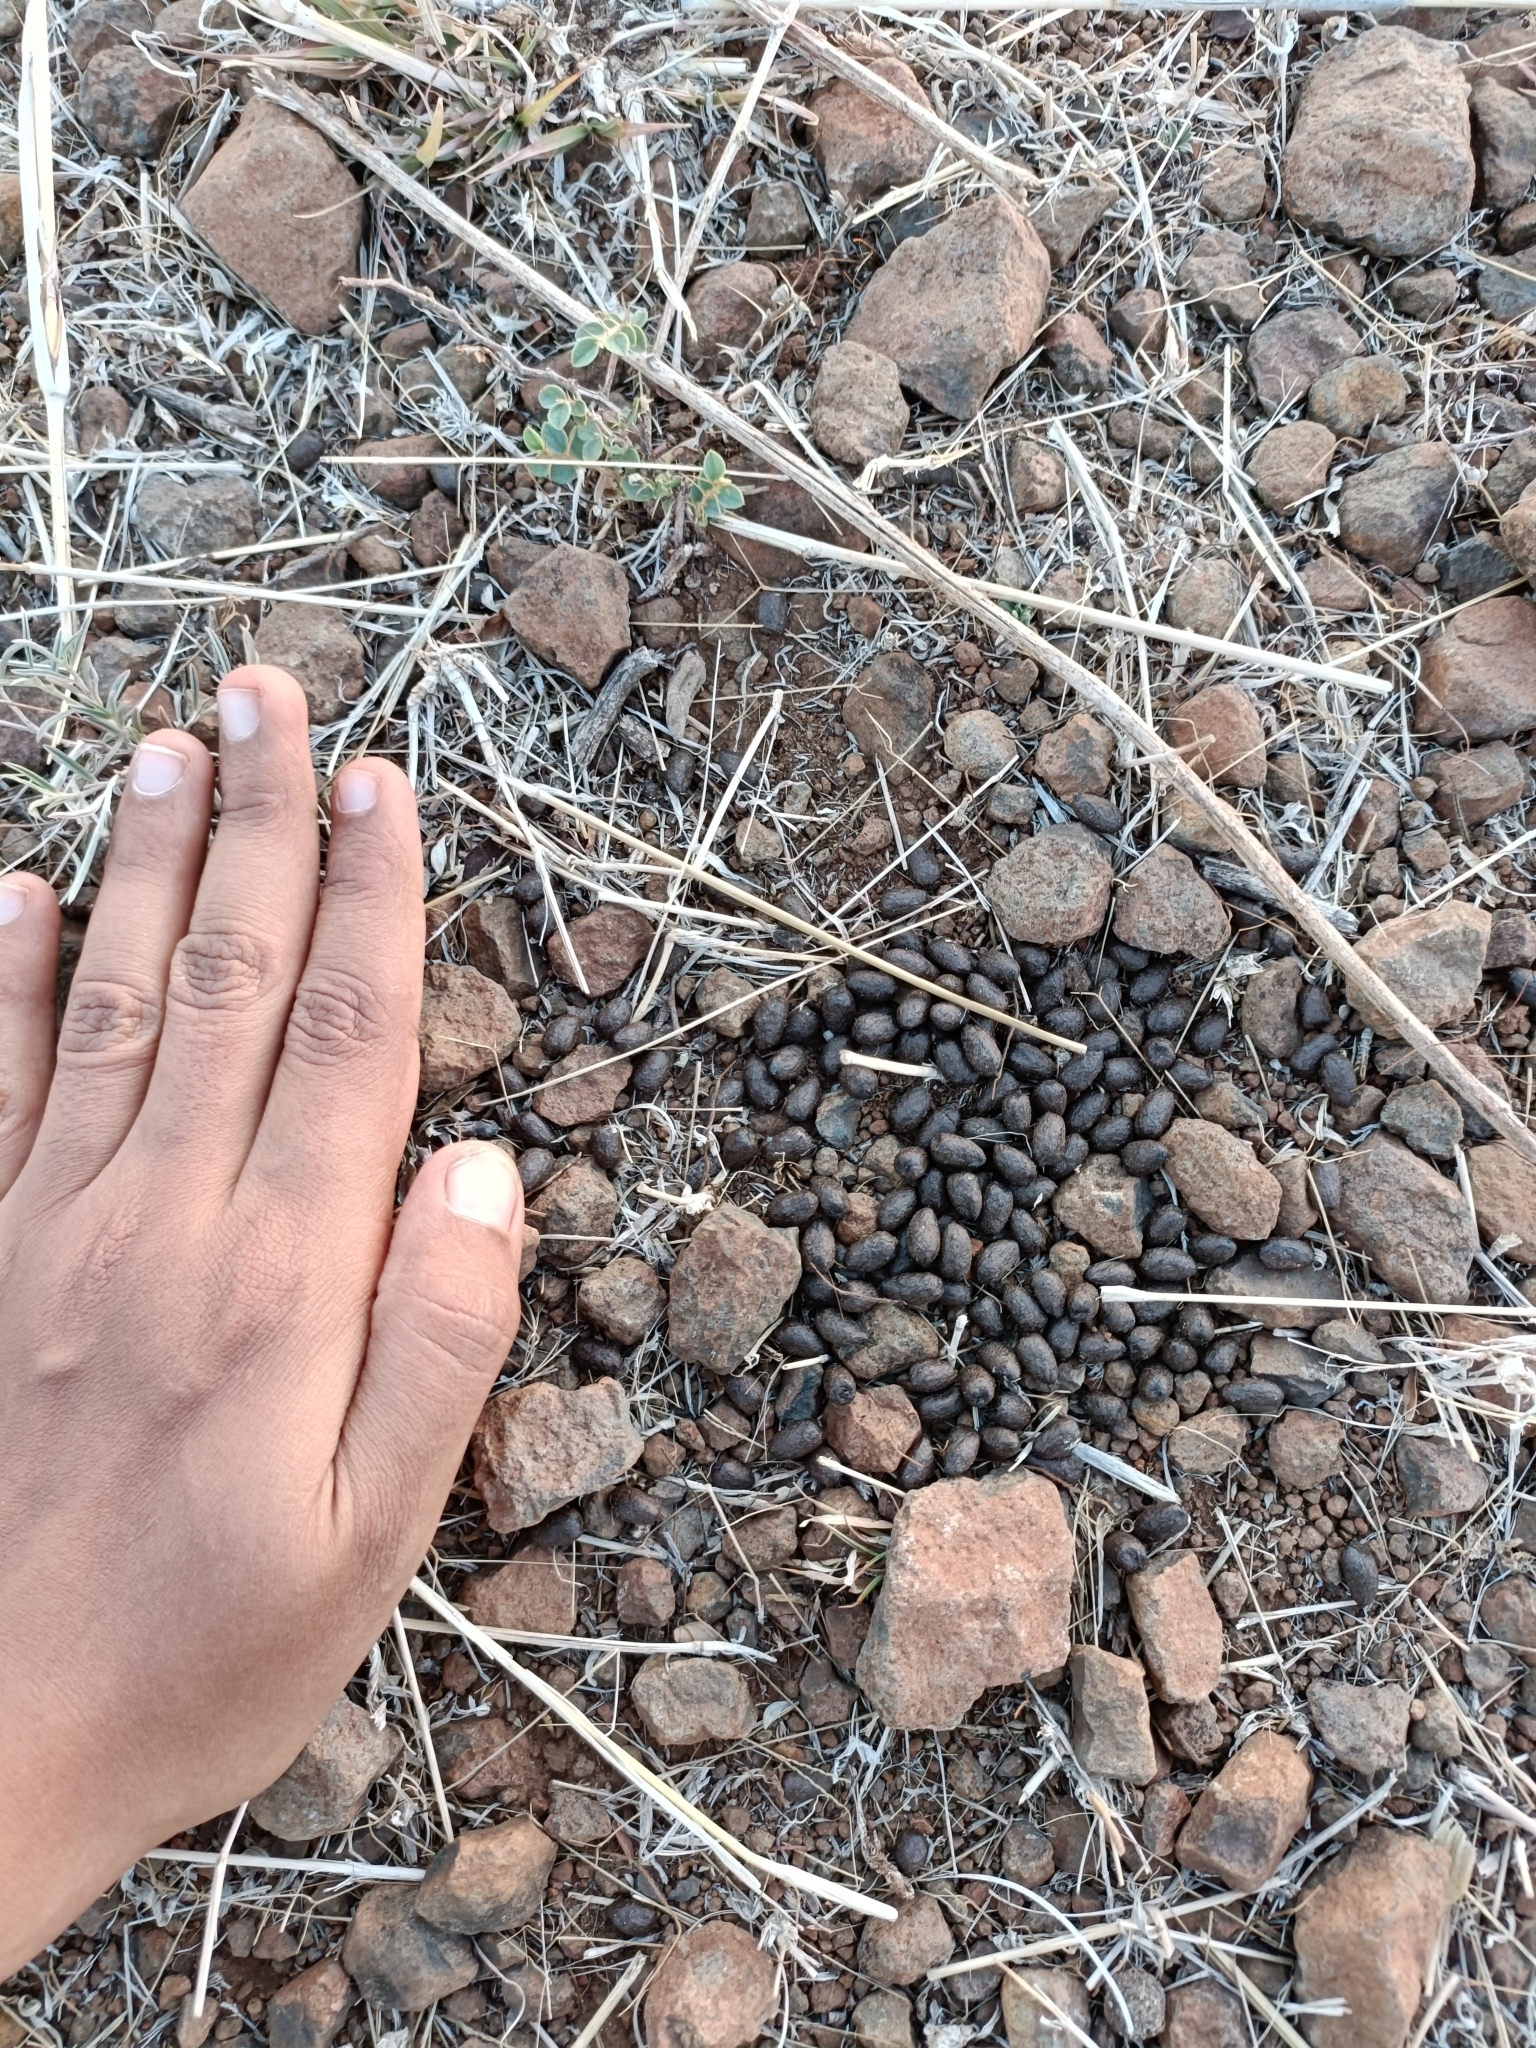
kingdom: Animalia
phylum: Chordata
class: Mammalia
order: Artiodactyla
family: Bovidae
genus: Gazella
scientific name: Gazella bennettii
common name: Indian gazelle
